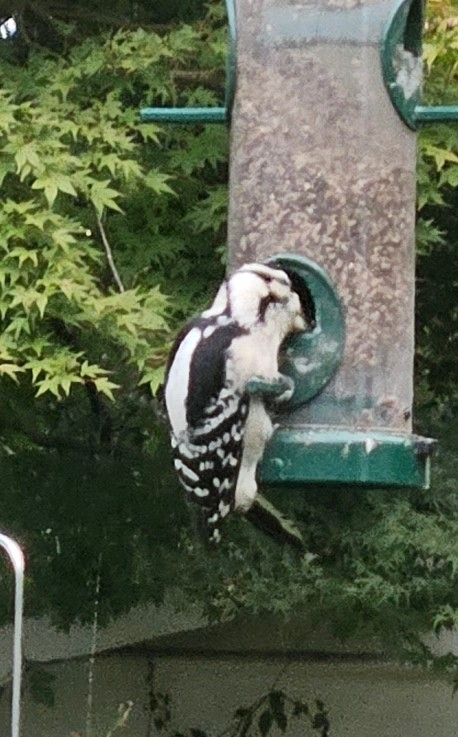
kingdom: Animalia
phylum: Chordata
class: Aves
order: Piciformes
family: Picidae
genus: Dryobates
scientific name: Dryobates pubescens
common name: Downy woodpecker
